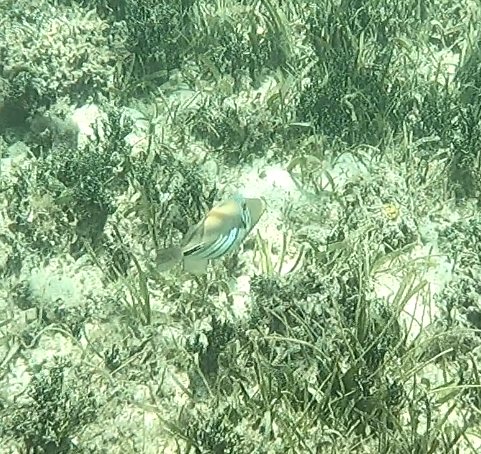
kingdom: Animalia
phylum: Chordata
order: Tetraodontiformes
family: Balistidae
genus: Rhinecanthus
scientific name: Rhinecanthus aculeatus
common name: White-banded triggerfish
